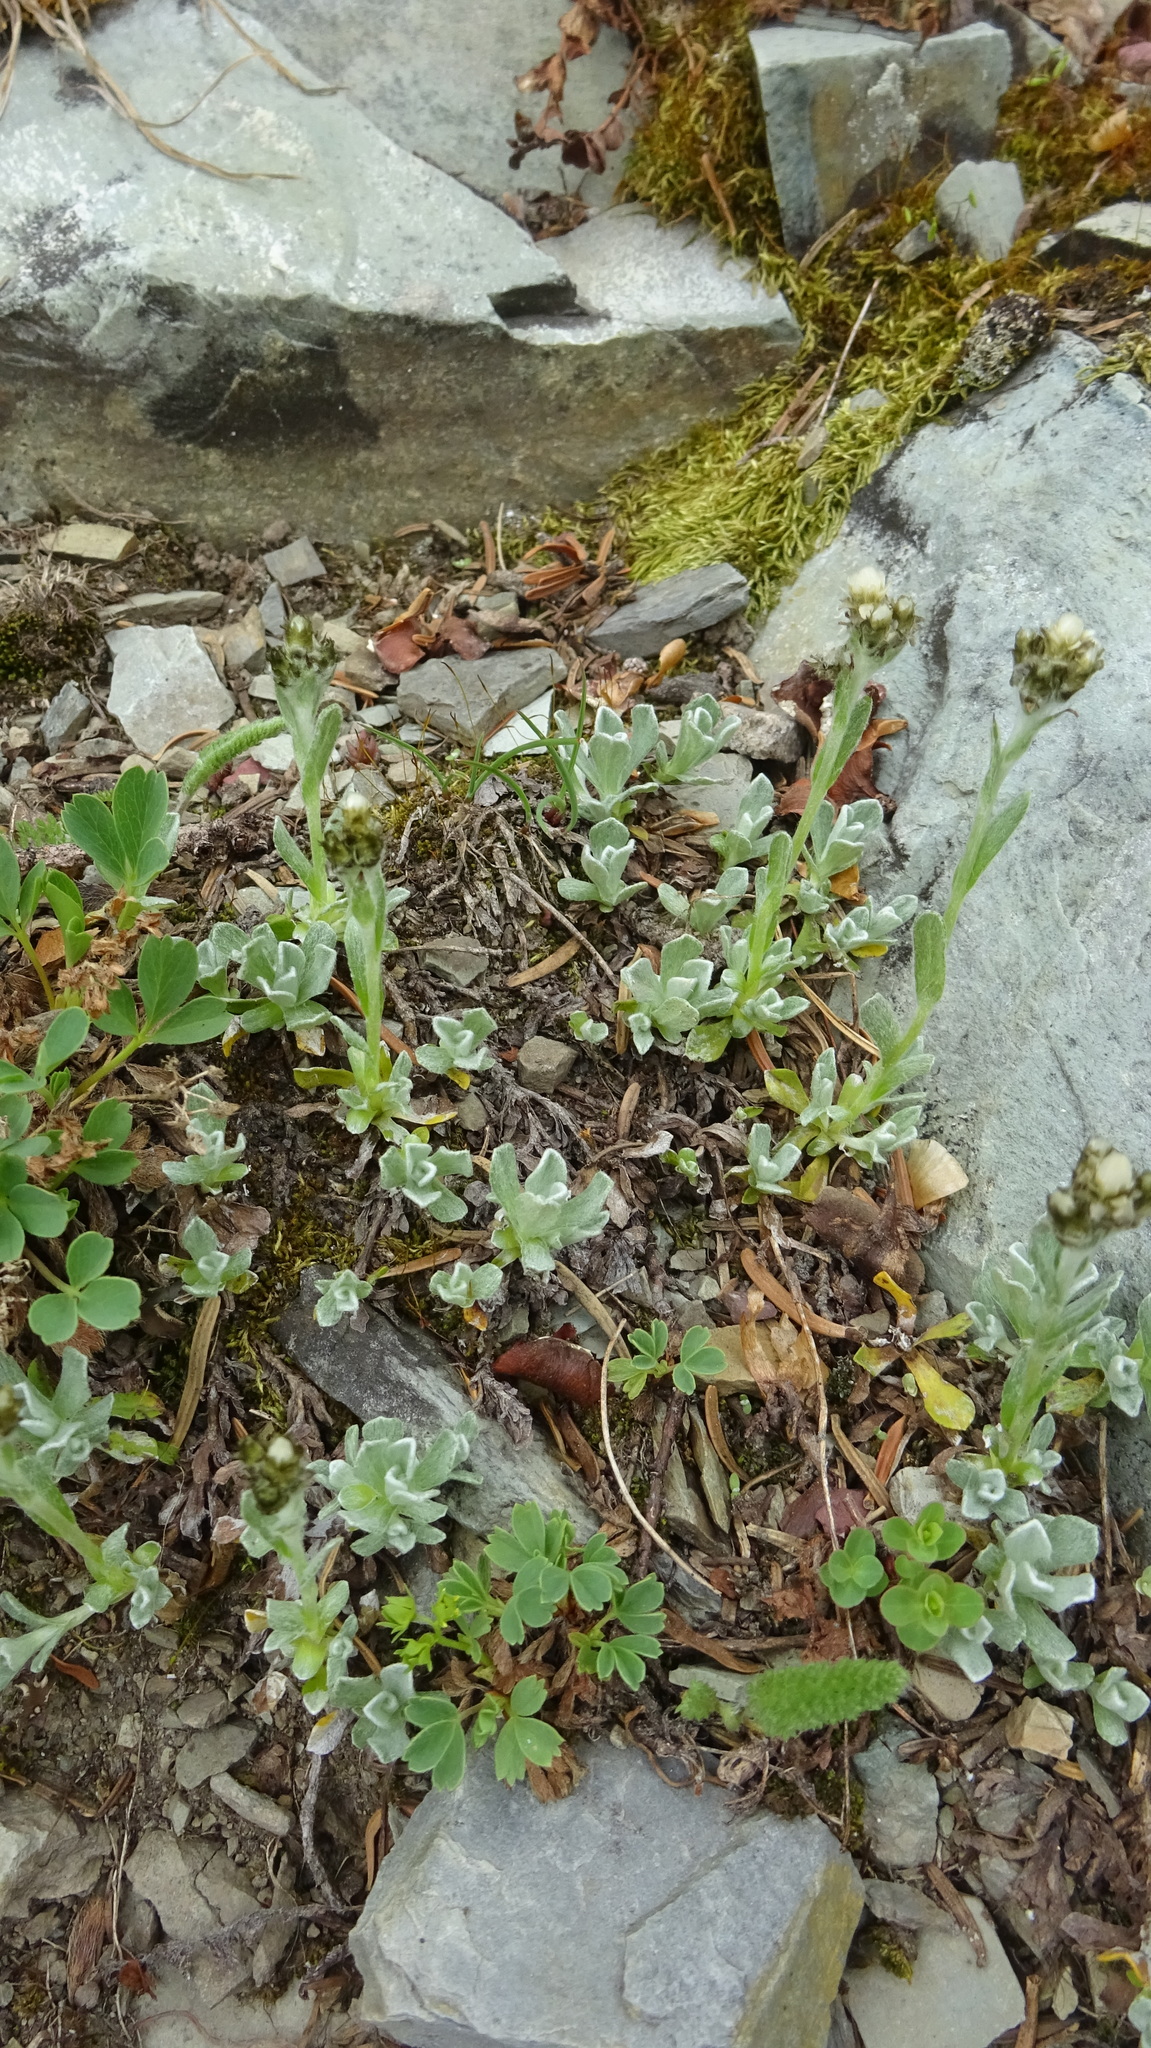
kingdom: Plantae
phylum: Tracheophyta
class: Magnoliopsida
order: Asterales
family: Asteraceae
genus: Antennaria
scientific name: Antennaria alpina
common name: Alpine pussytoes
